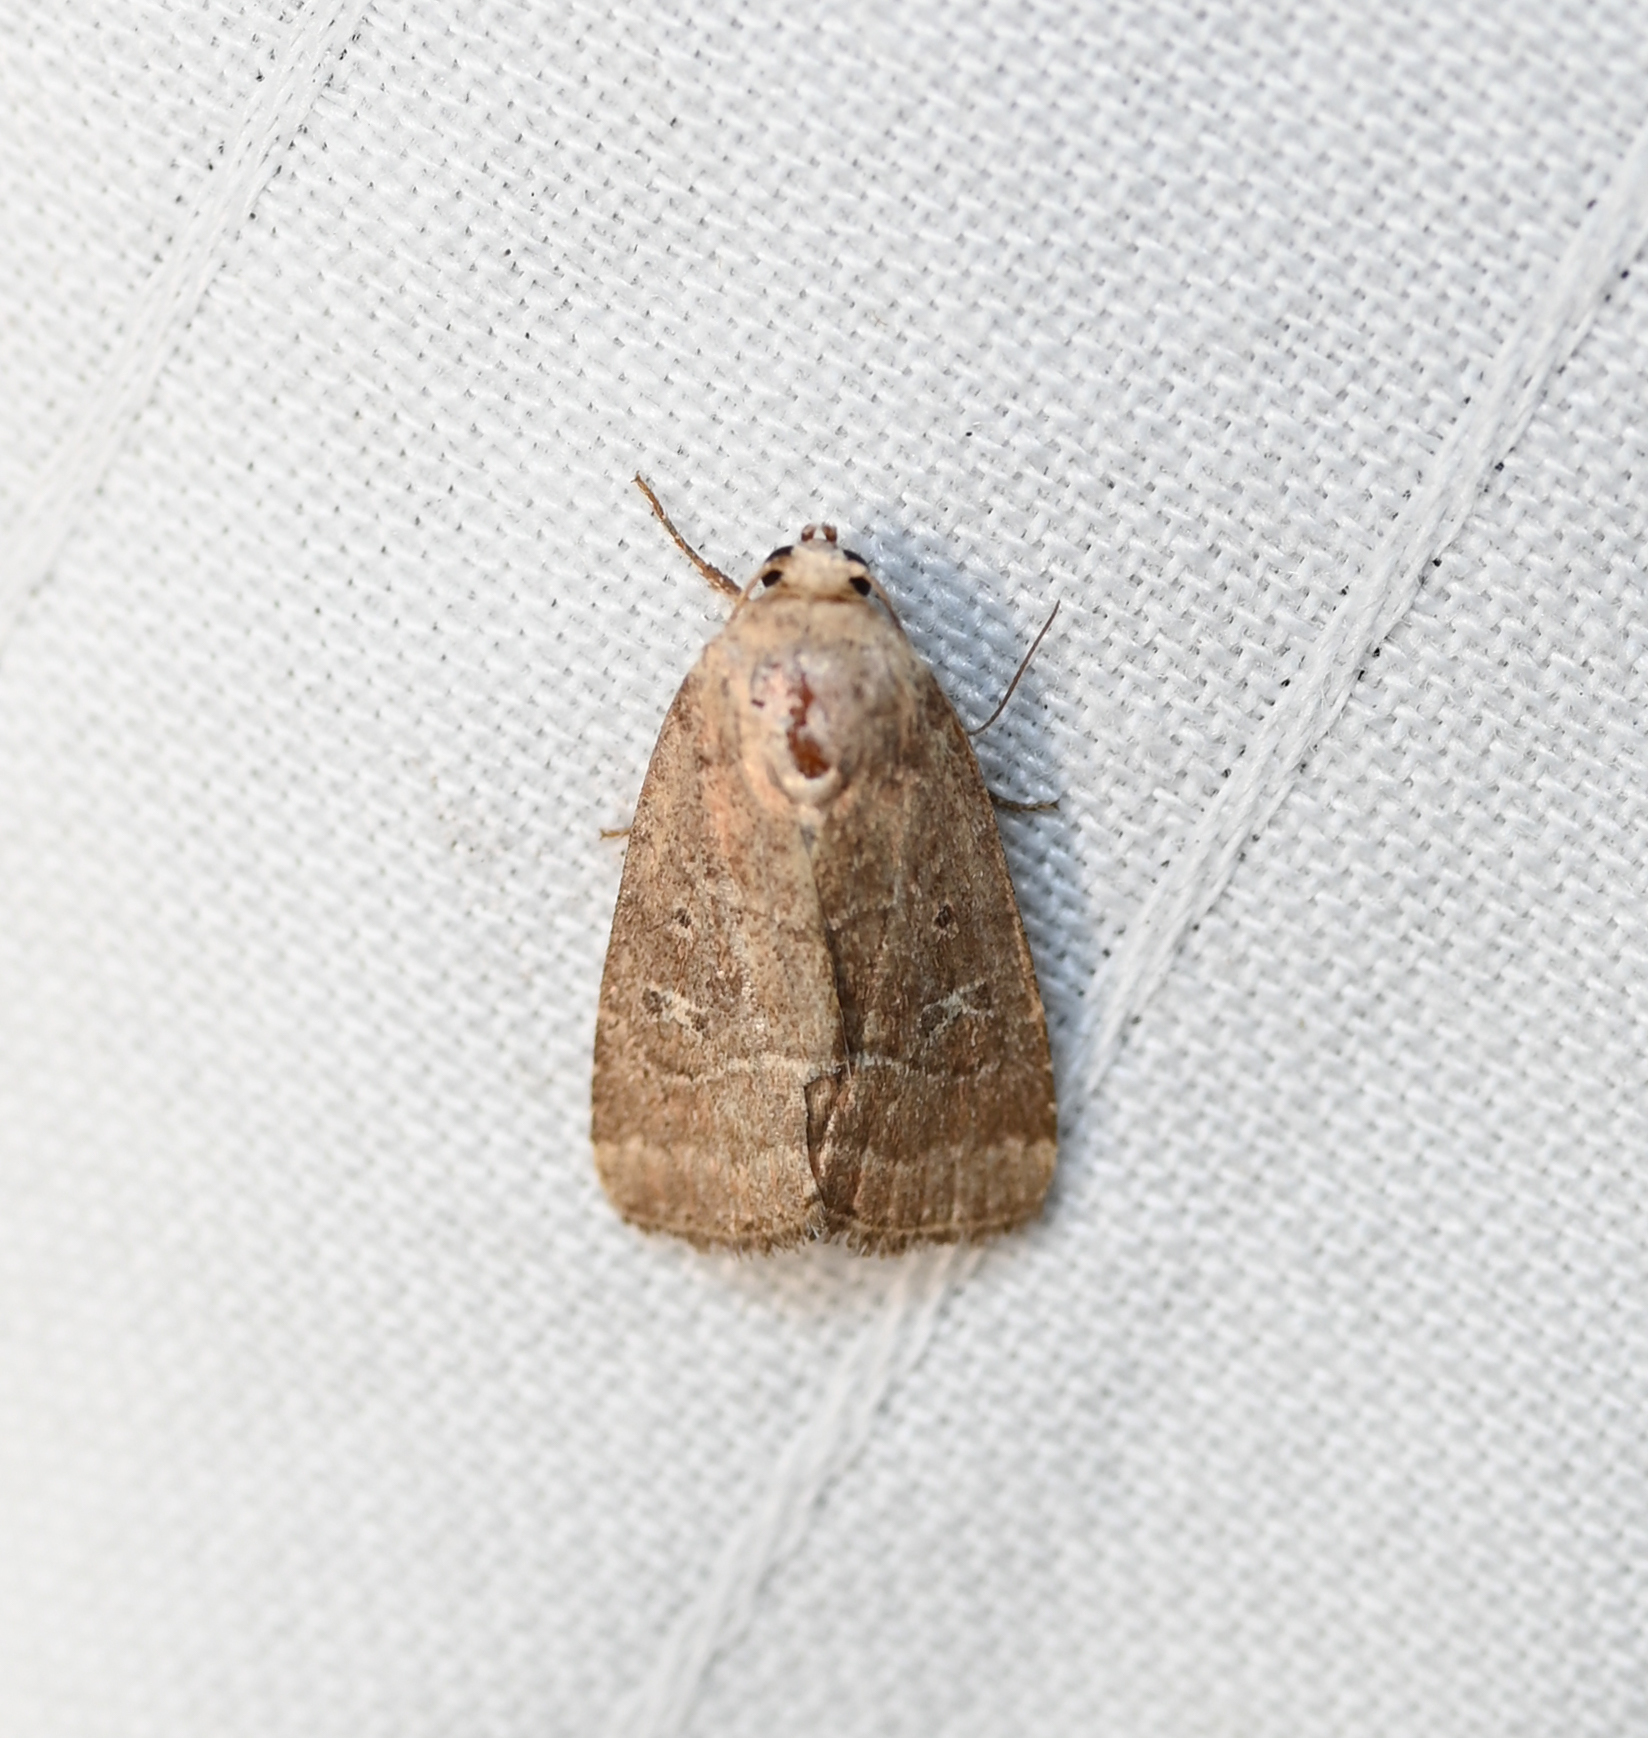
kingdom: Animalia
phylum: Arthropoda
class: Insecta
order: Lepidoptera
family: Noctuidae
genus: Elaphria
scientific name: Elaphria grata
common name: Grateful midget moth
